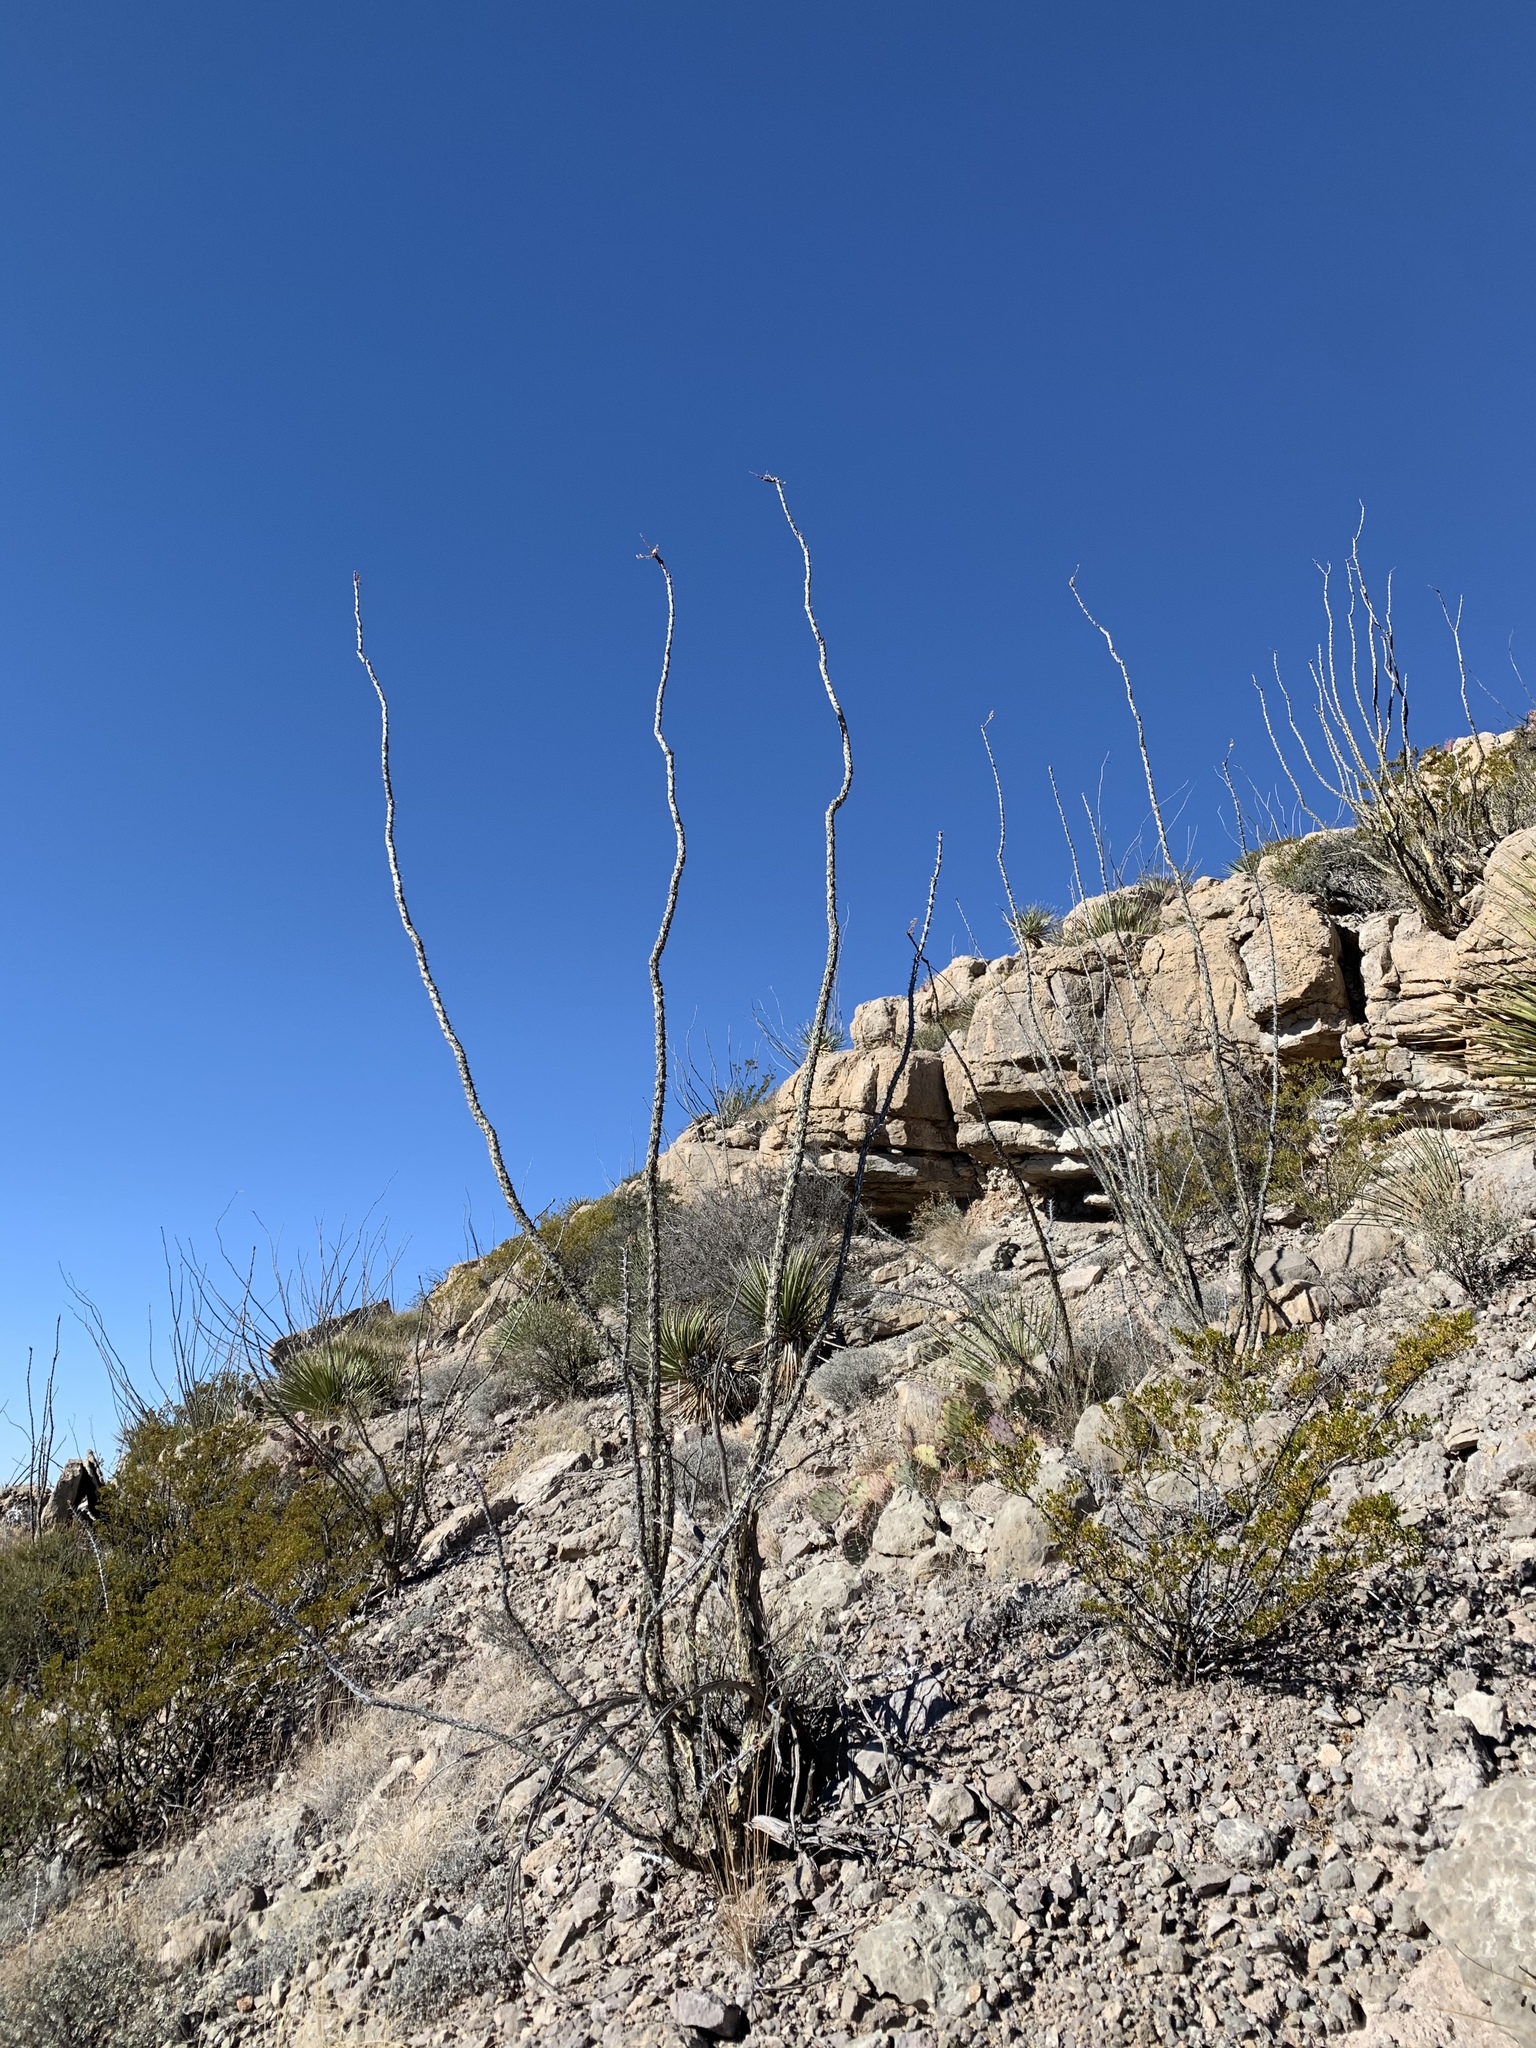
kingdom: Plantae
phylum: Tracheophyta
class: Magnoliopsida
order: Ericales
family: Fouquieriaceae
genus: Fouquieria
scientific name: Fouquieria splendens
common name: Vine-cactus
